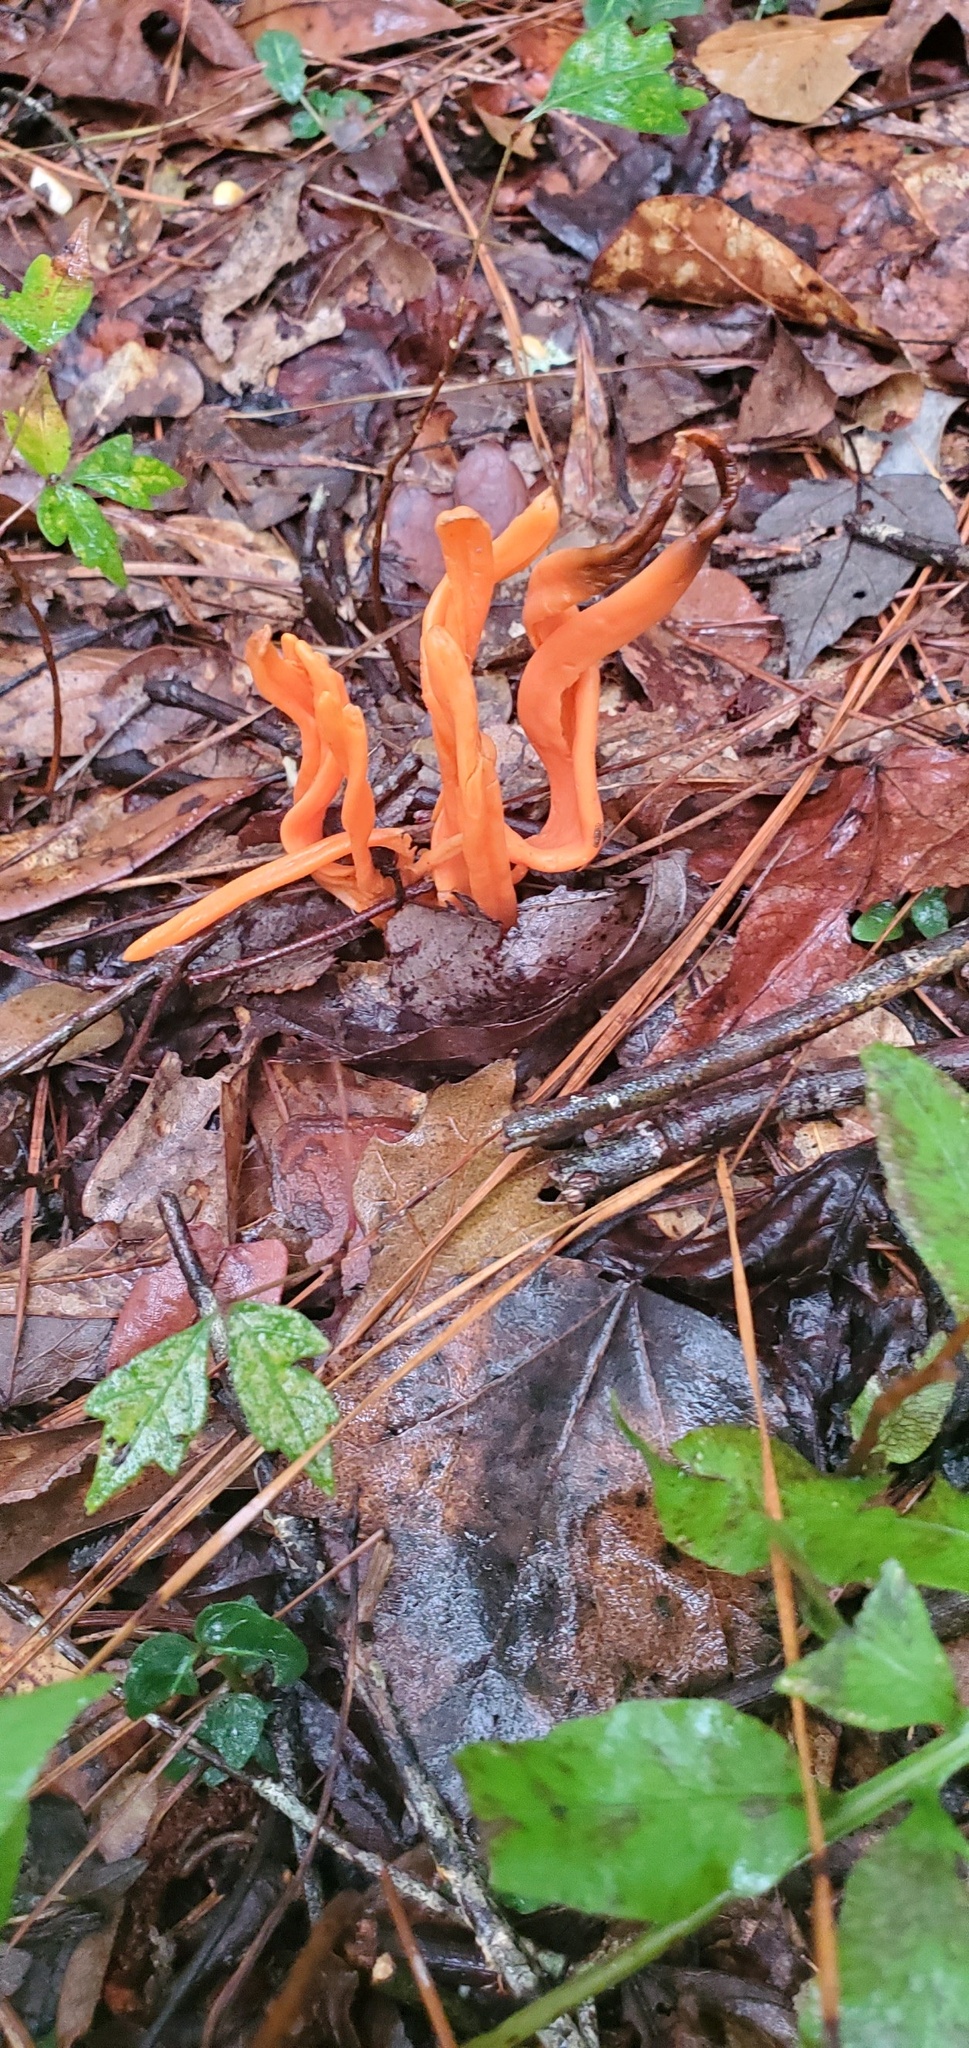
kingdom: Fungi
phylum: Basidiomycota
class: Agaricomycetes
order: Agaricales
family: Clavariaceae
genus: Clavulinopsis
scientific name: Clavulinopsis aurantiocinnabarina
